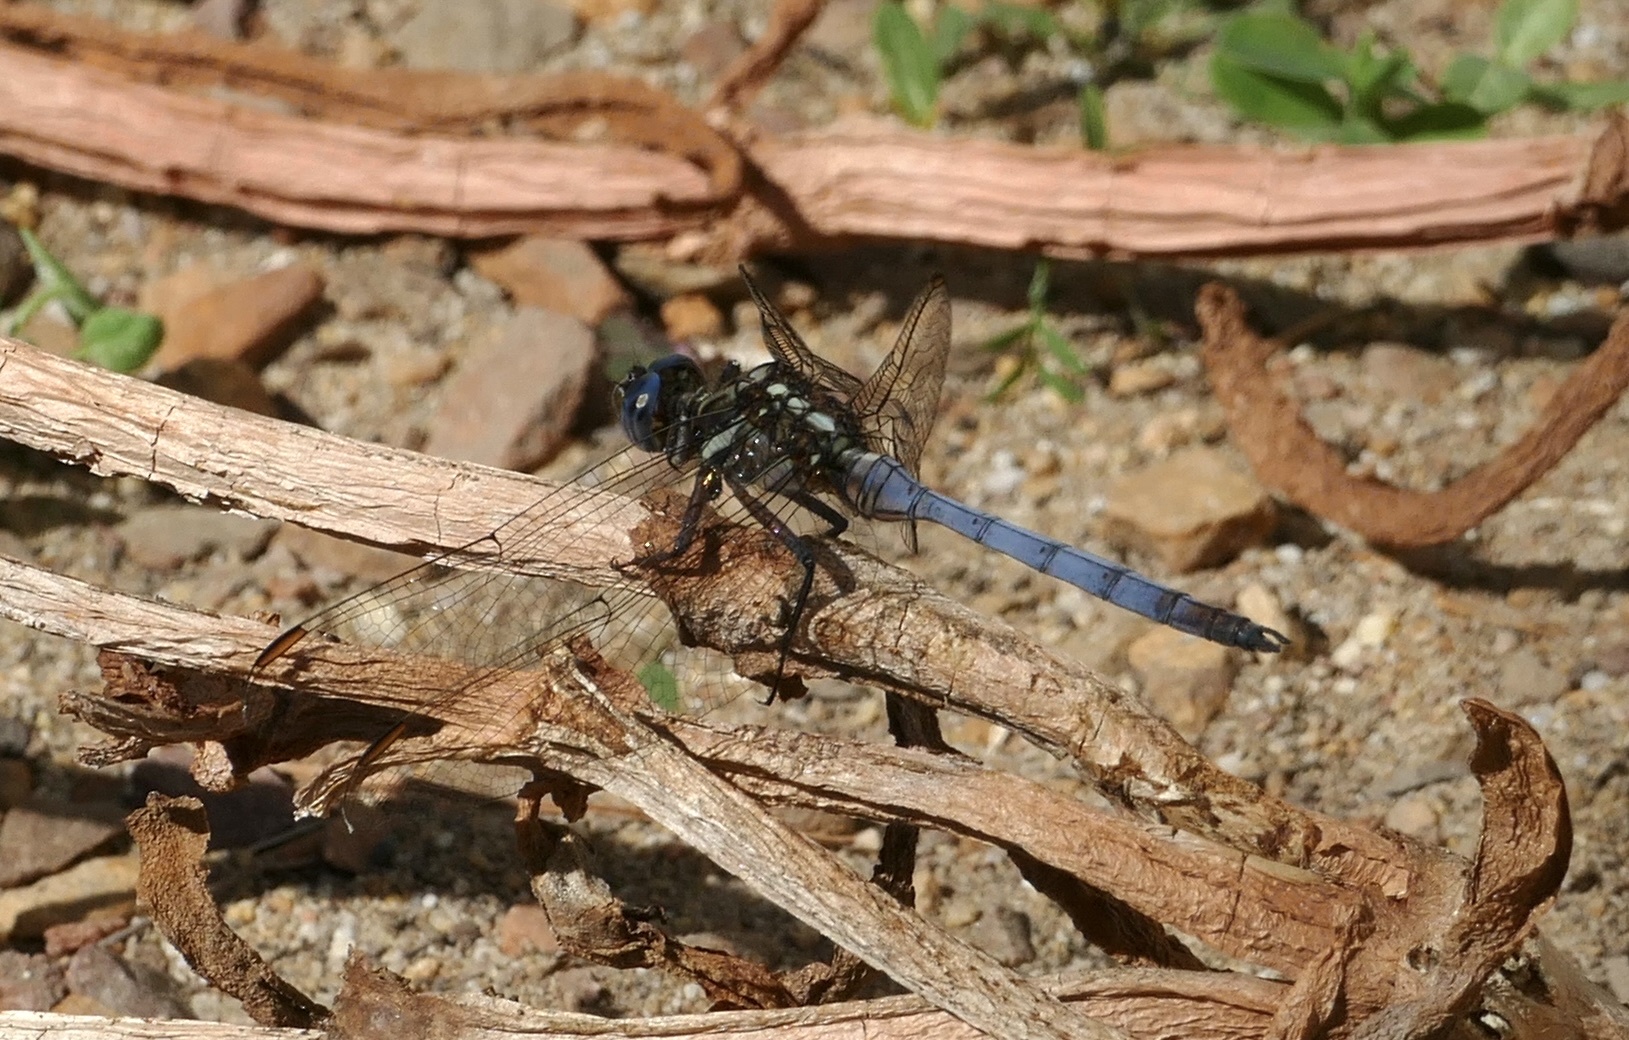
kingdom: Animalia
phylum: Arthropoda
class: Insecta
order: Odonata
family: Libellulidae
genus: Orthetrum
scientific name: Orthetrum julia
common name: Julia skimmer
